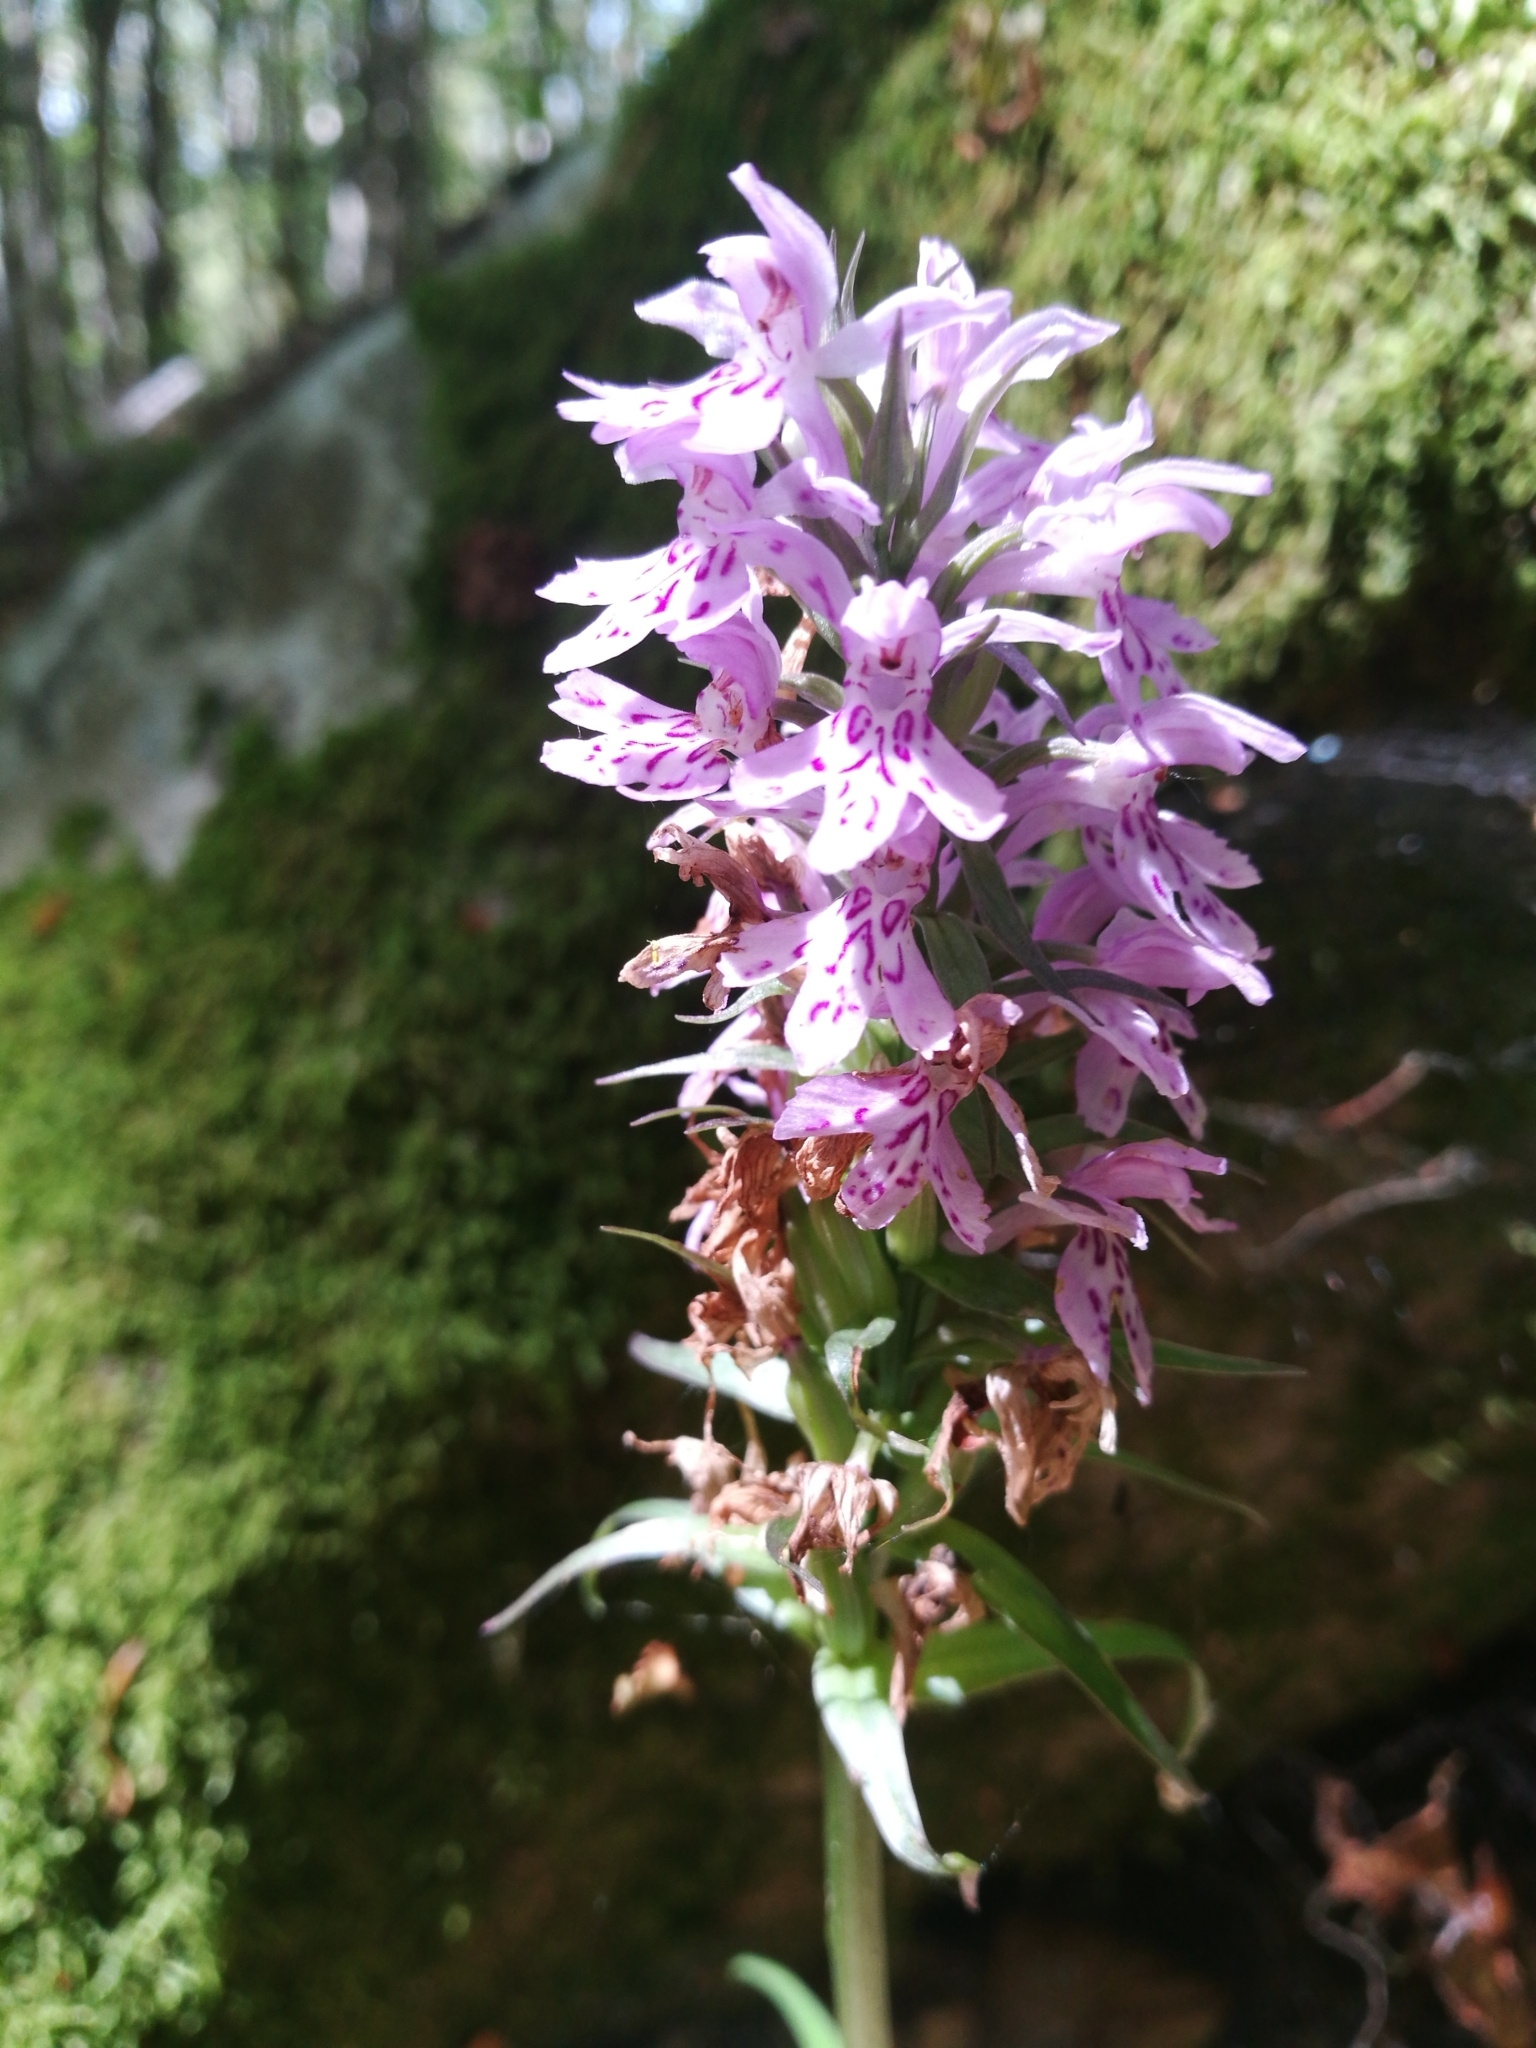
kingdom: Plantae
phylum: Tracheophyta
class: Liliopsida
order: Asparagales
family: Orchidaceae
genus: Dactylorhiza
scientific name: Dactylorhiza maculata
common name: Heath spotted-orchid
